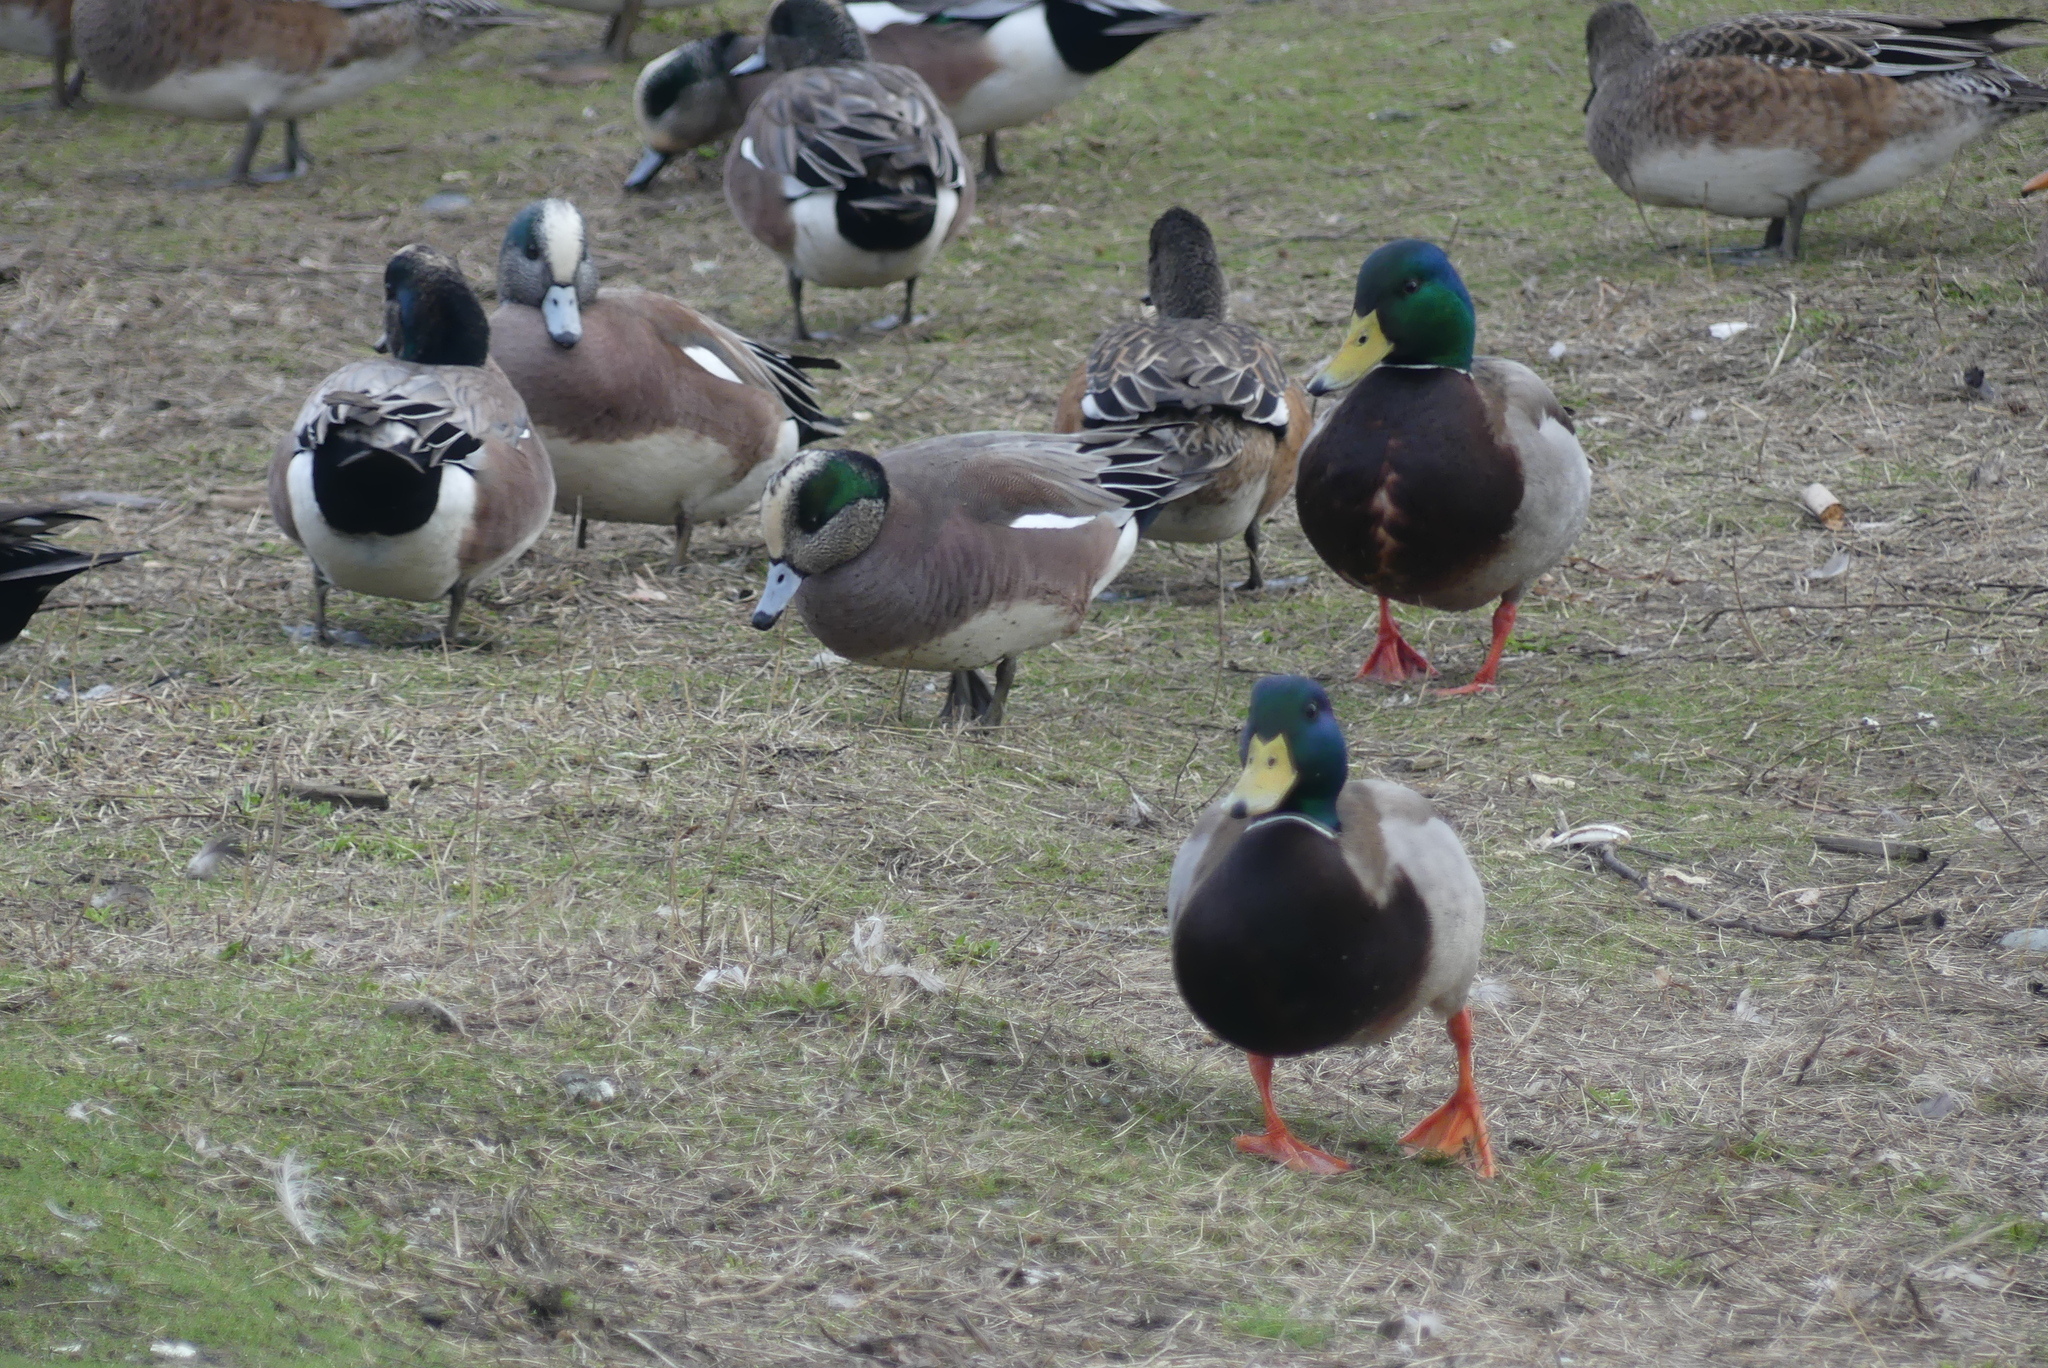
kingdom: Animalia
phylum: Chordata
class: Aves
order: Anseriformes
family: Anatidae
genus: Mareca
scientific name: Mareca americana
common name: American wigeon
